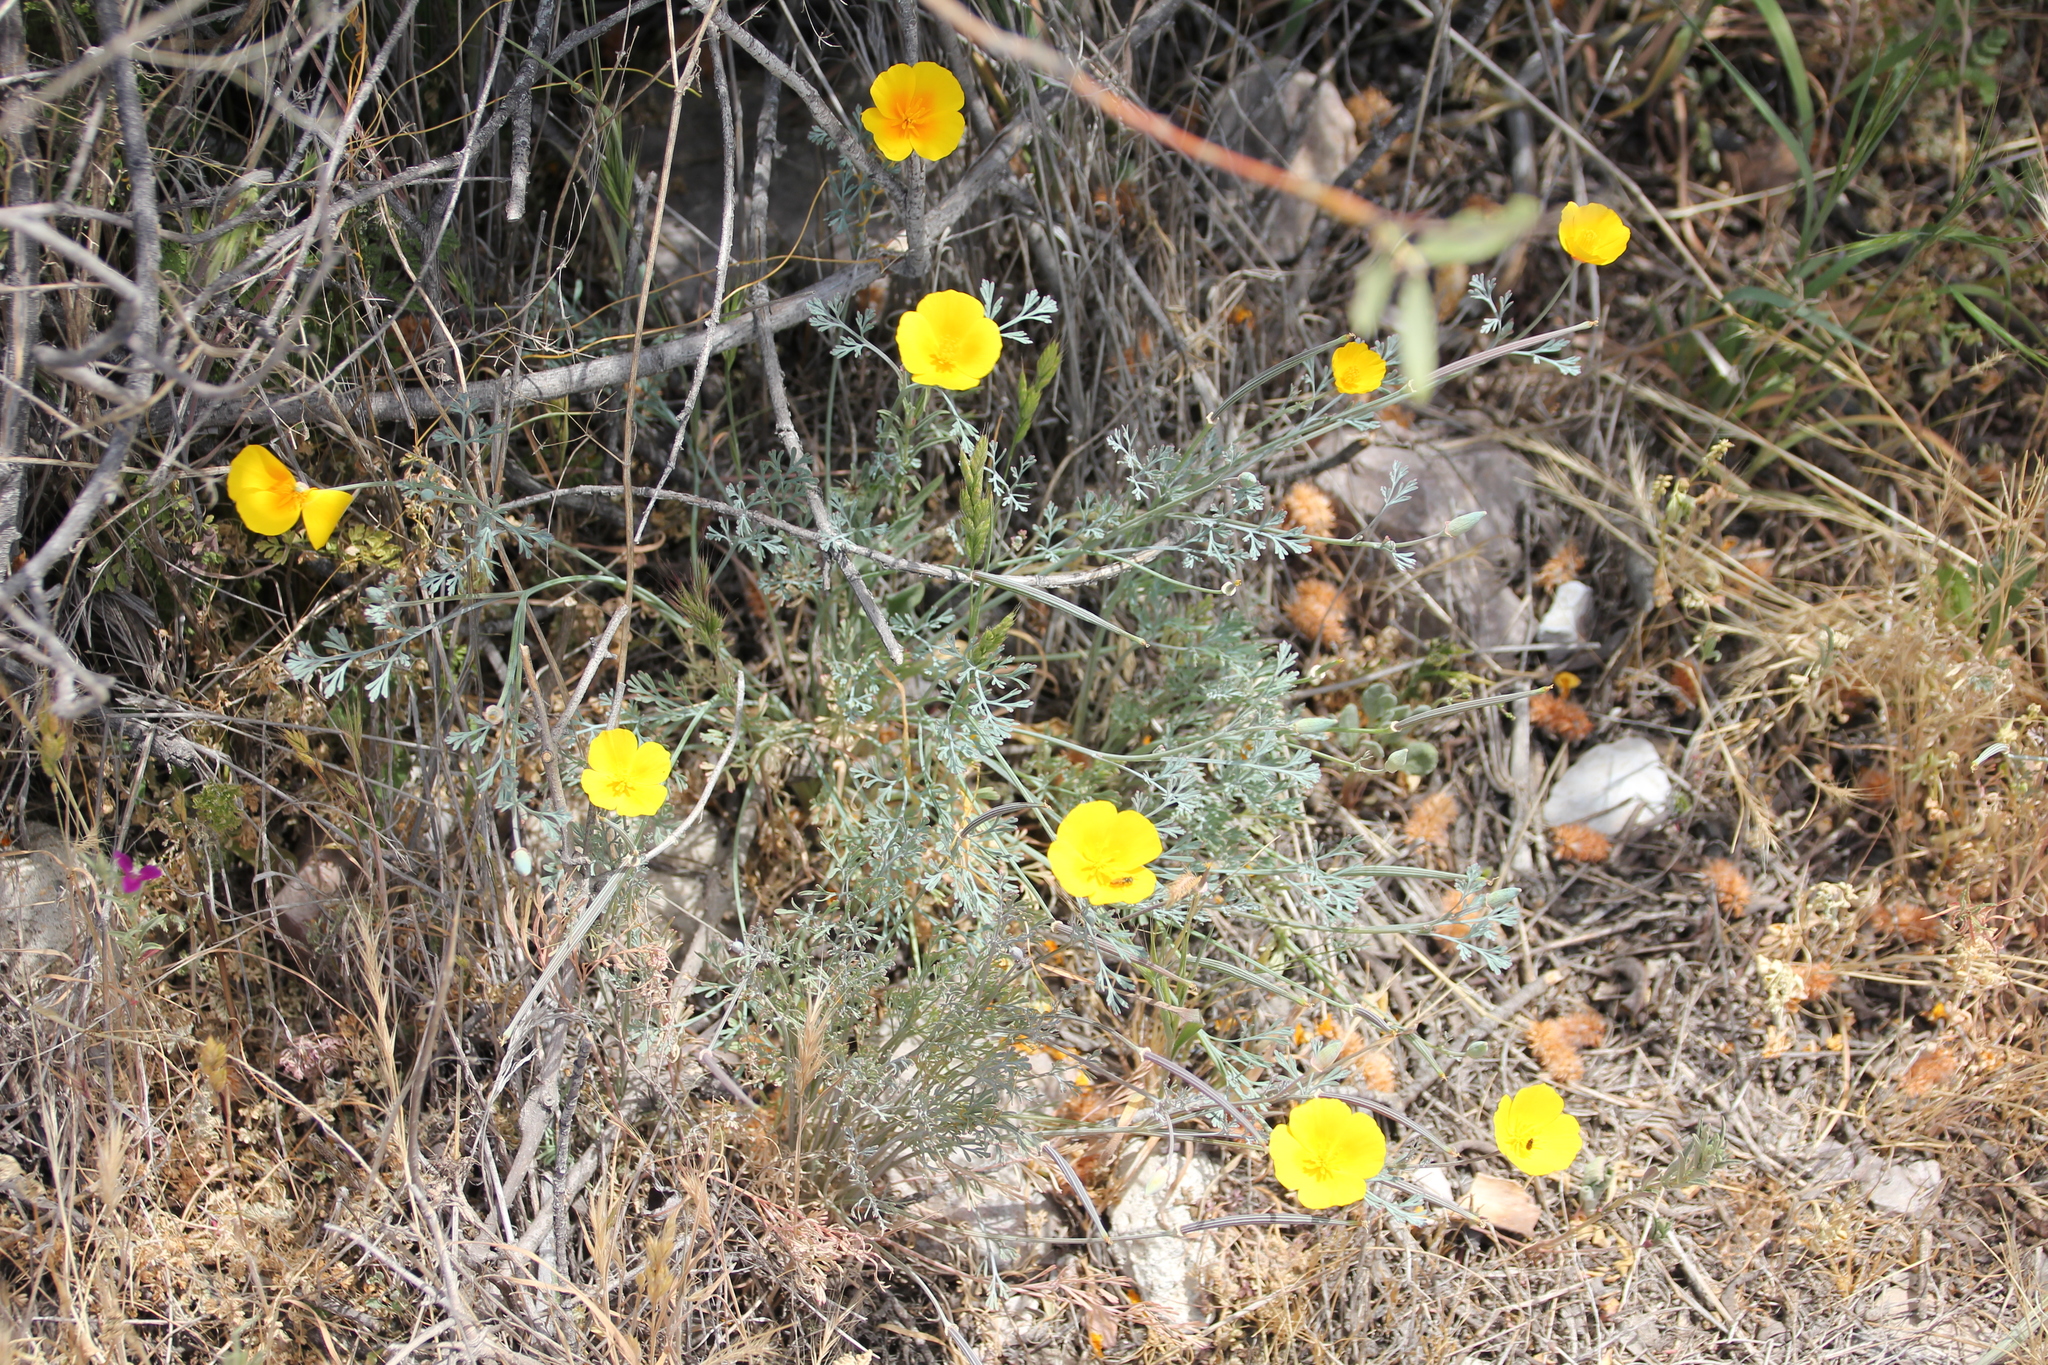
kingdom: Plantae
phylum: Tracheophyta
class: Magnoliopsida
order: Ranunculales
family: Papaveraceae
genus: Eschscholzia
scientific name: Eschscholzia californica
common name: California poppy
